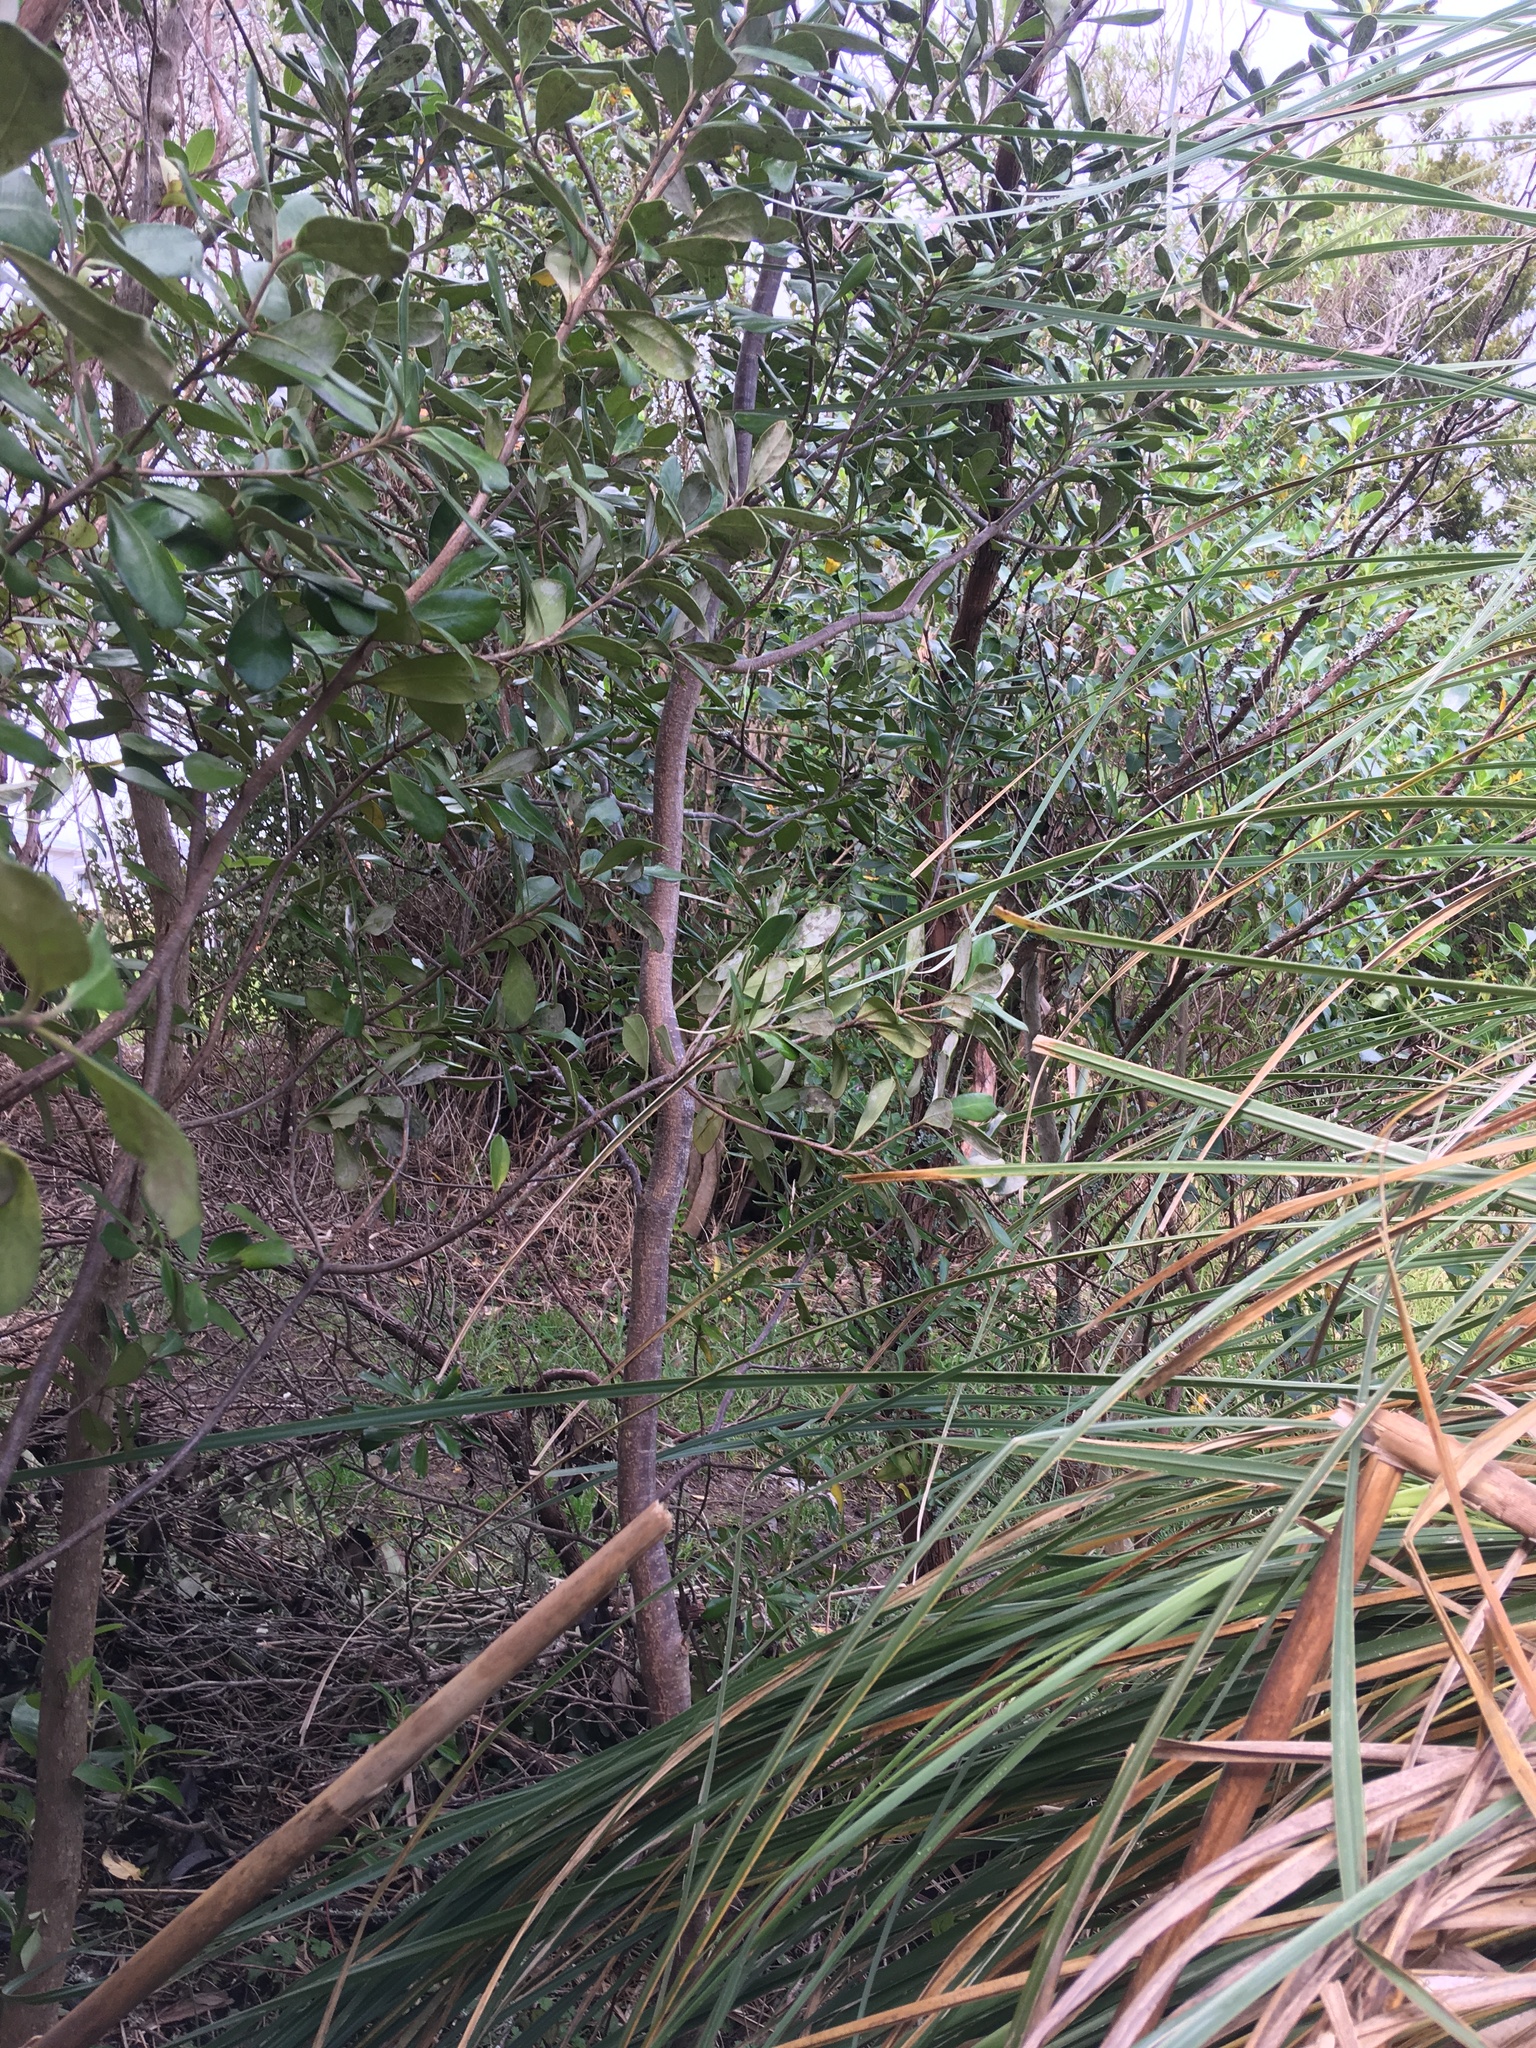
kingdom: Plantae
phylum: Tracheophyta
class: Magnoliopsida
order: Apiales
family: Pittosporaceae
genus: Pittosporum
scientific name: Pittosporum crassifolium
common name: Karo
